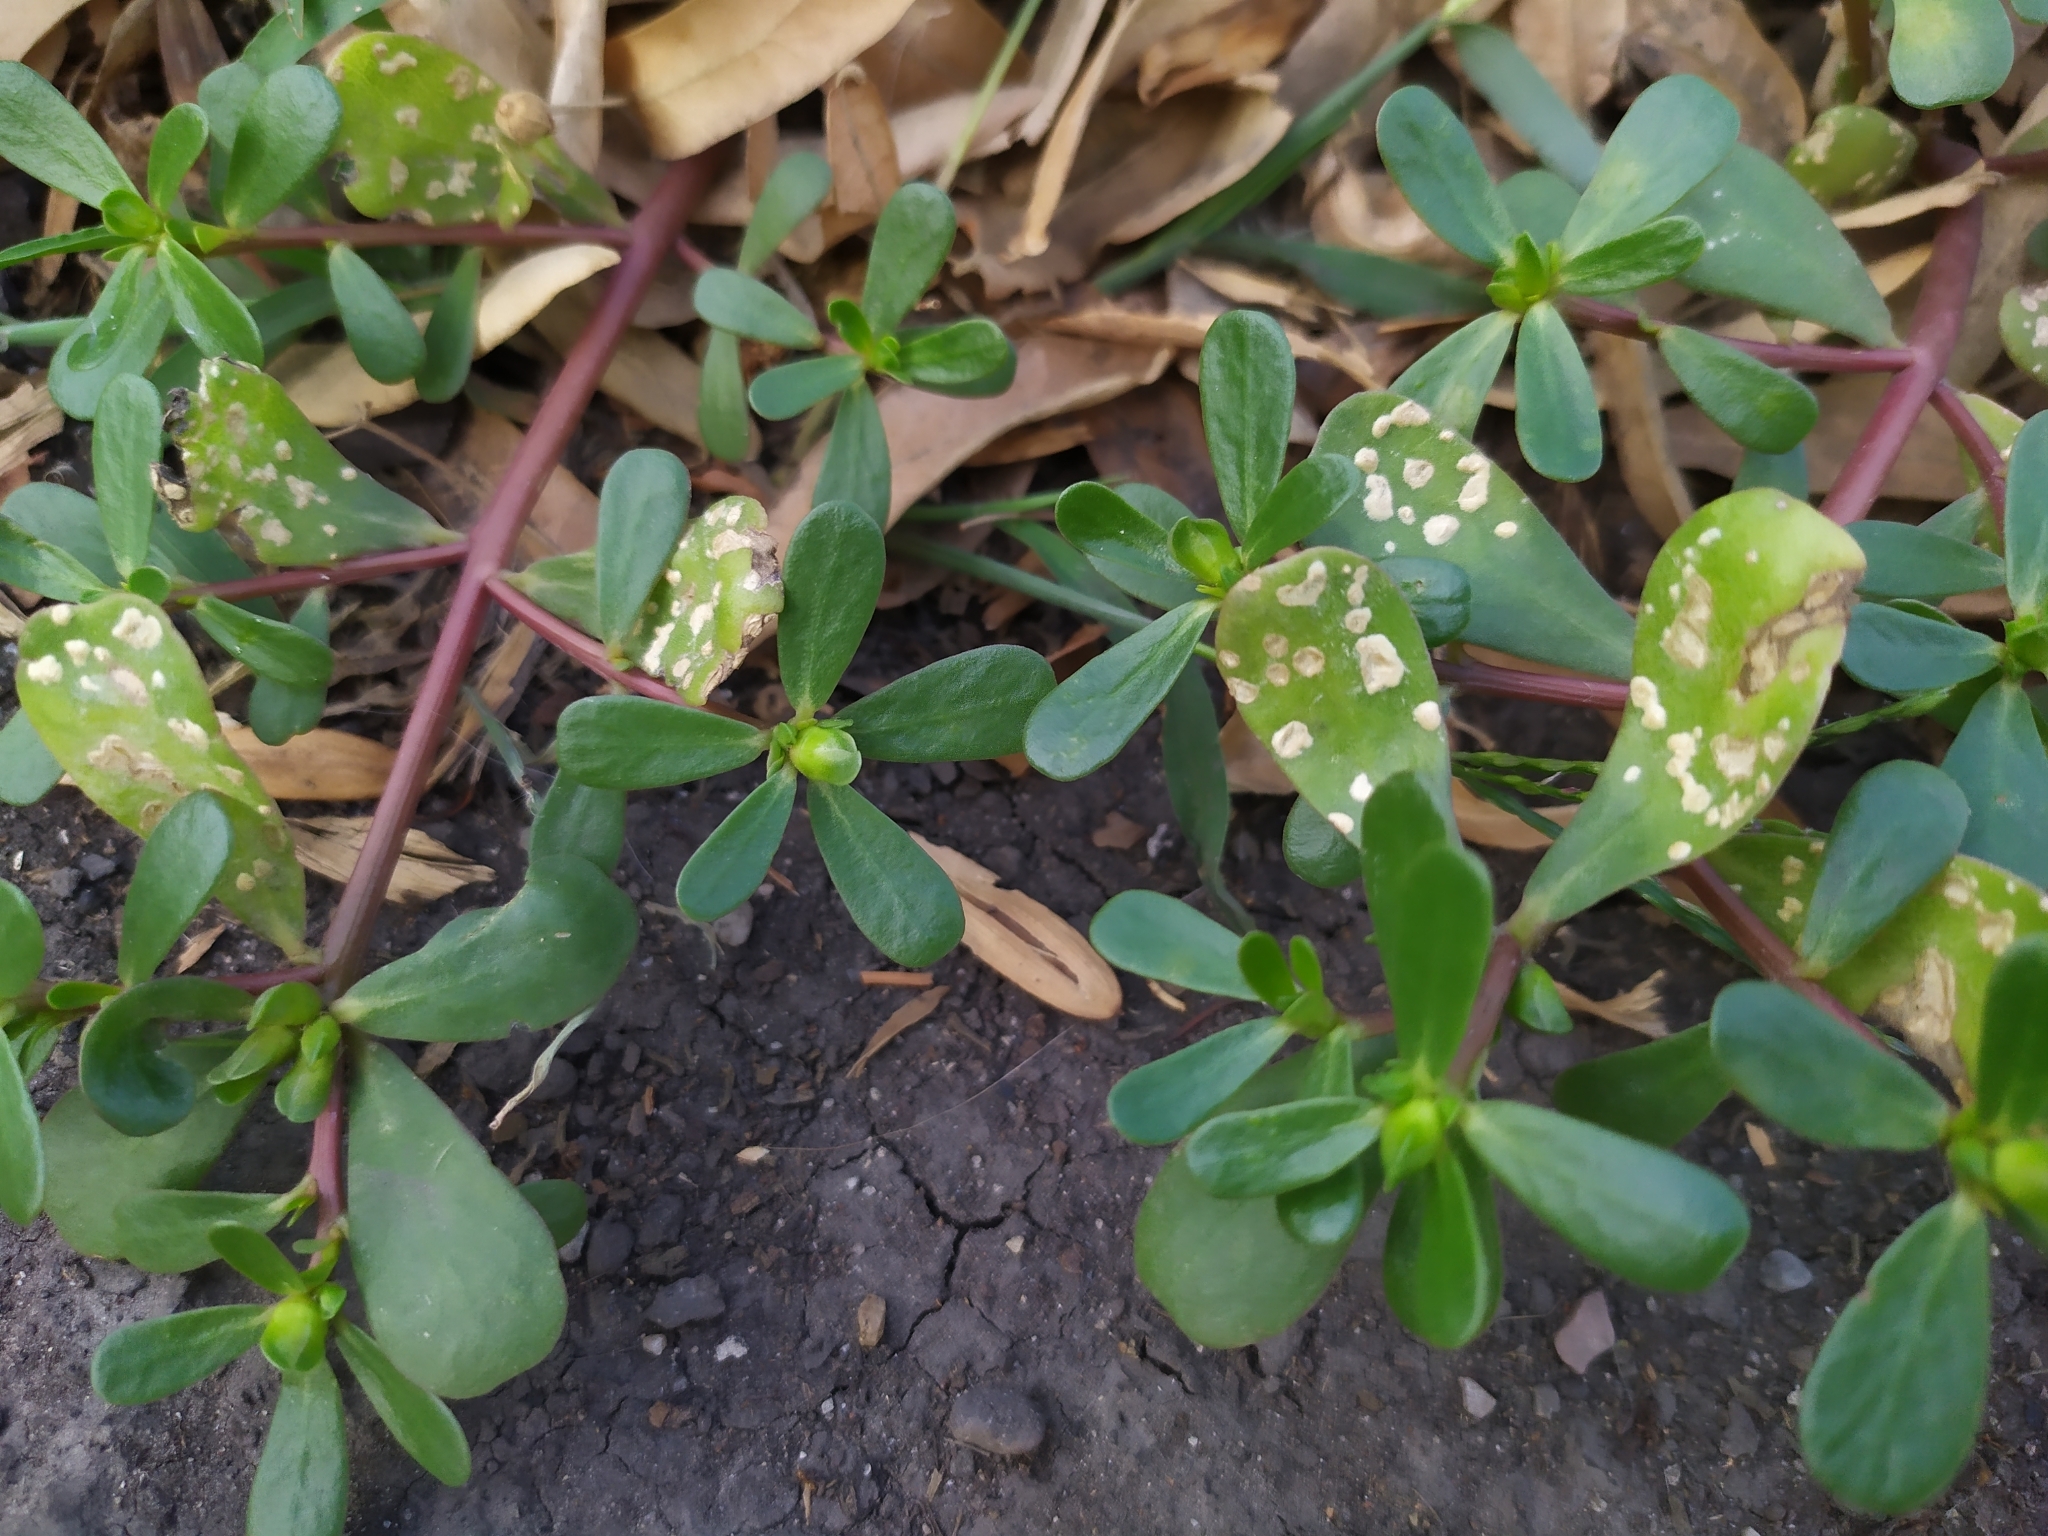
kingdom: Chromista
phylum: Oomycota
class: Peronosporea
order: Albuginales
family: Albuginaceae
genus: Wilsoniana
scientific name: Wilsoniana portulacae
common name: Purslane white rust
